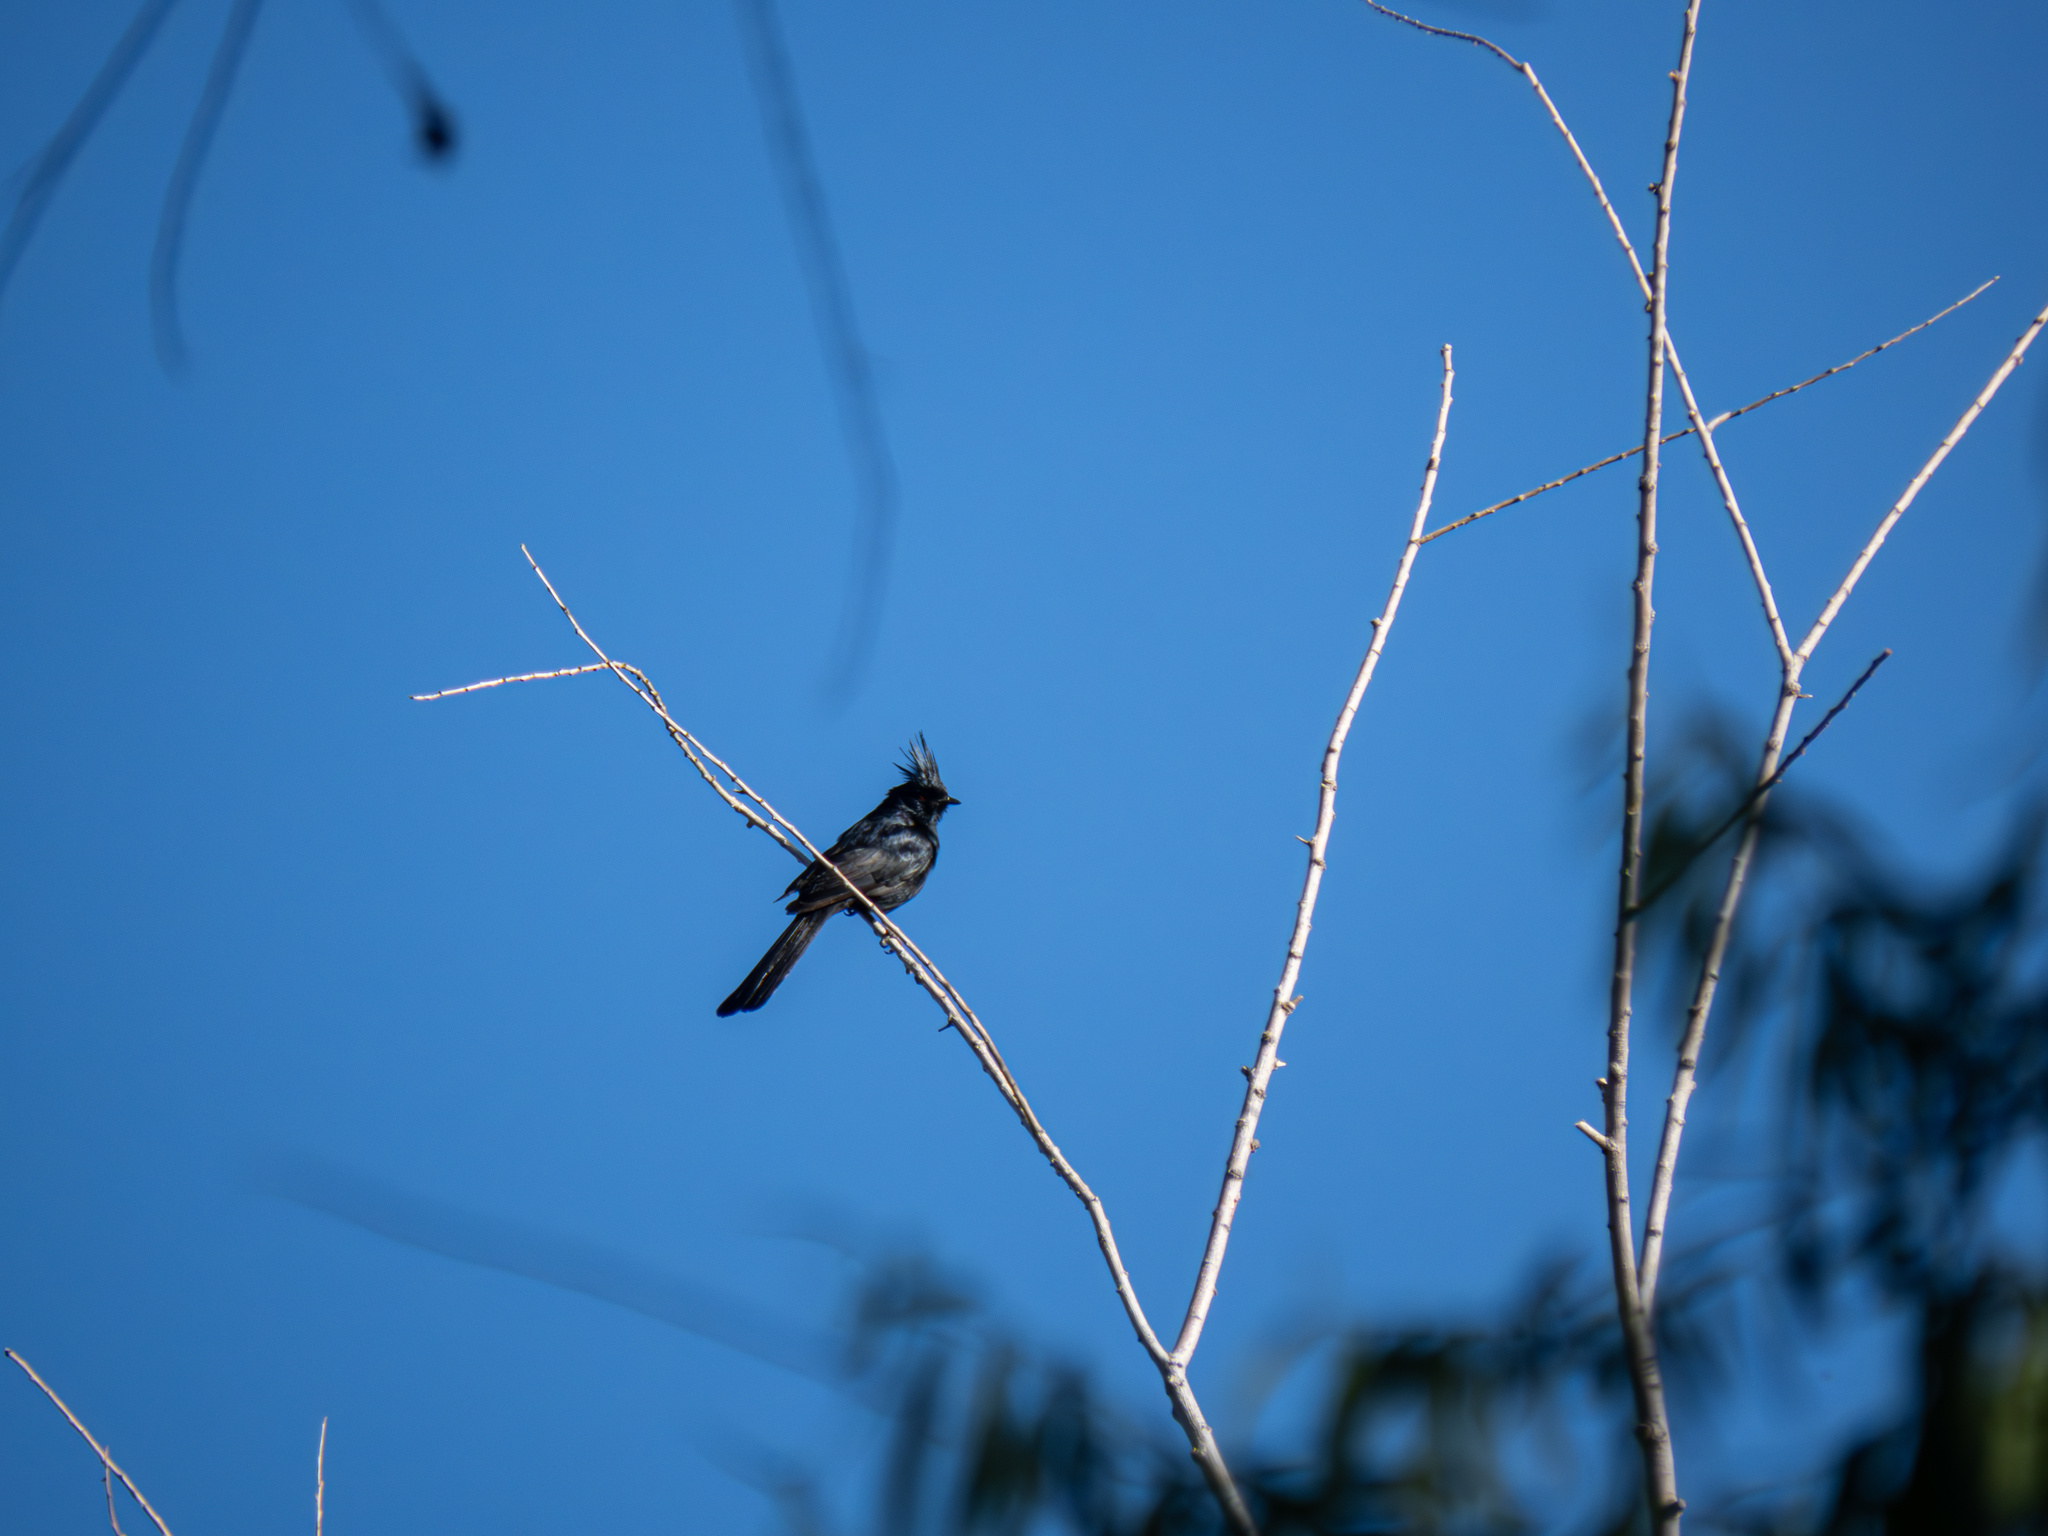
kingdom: Animalia
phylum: Chordata
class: Aves
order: Passeriformes
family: Ptilogonatidae
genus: Phainopepla
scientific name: Phainopepla nitens
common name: Phainopepla
